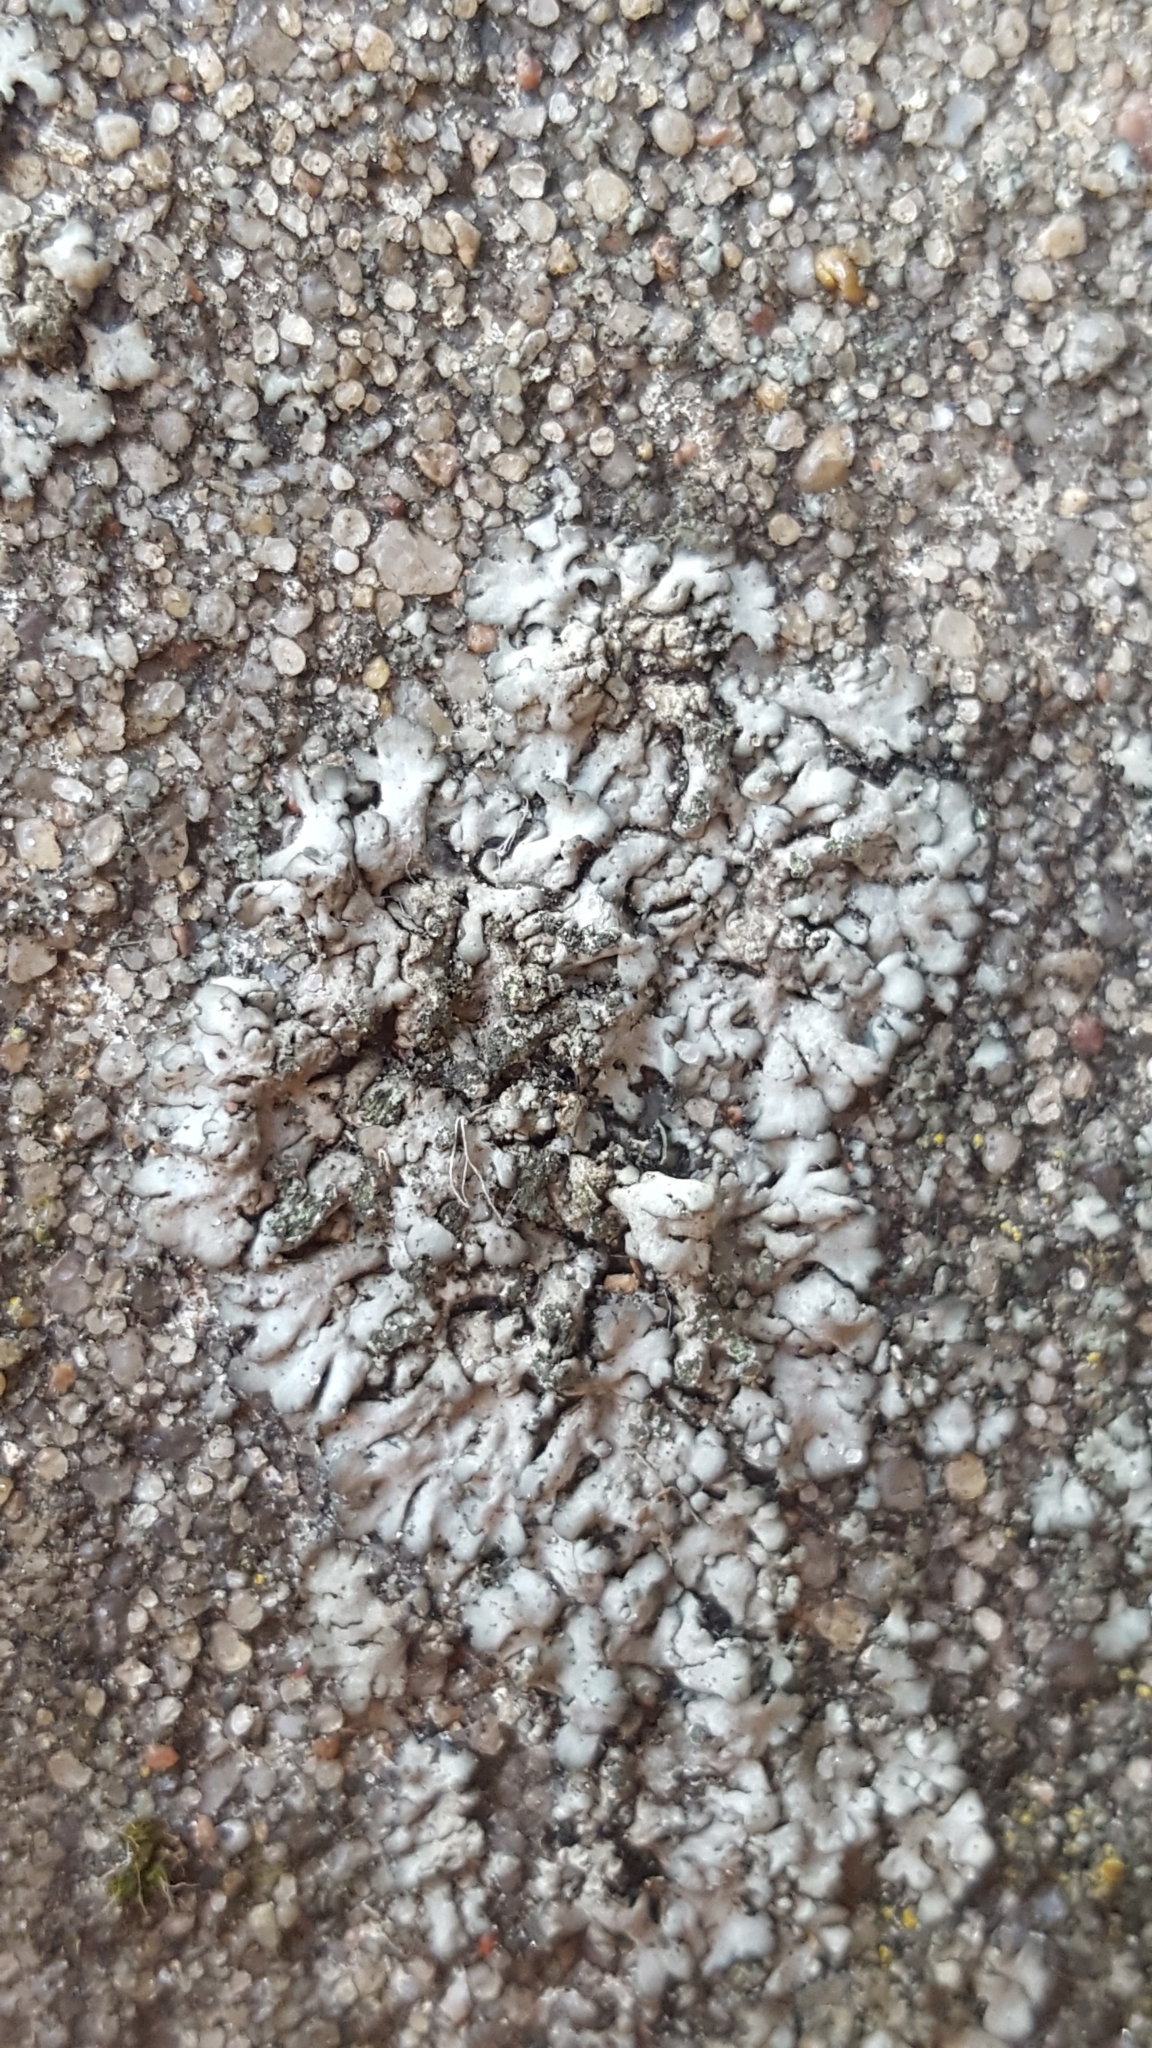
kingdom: Fungi
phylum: Ascomycota
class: Lecanoromycetes
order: Caliciales
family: Physciaceae
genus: Phaeophyscia
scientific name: Phaeophyscia orbicularis
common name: Mealy shadow lichen
